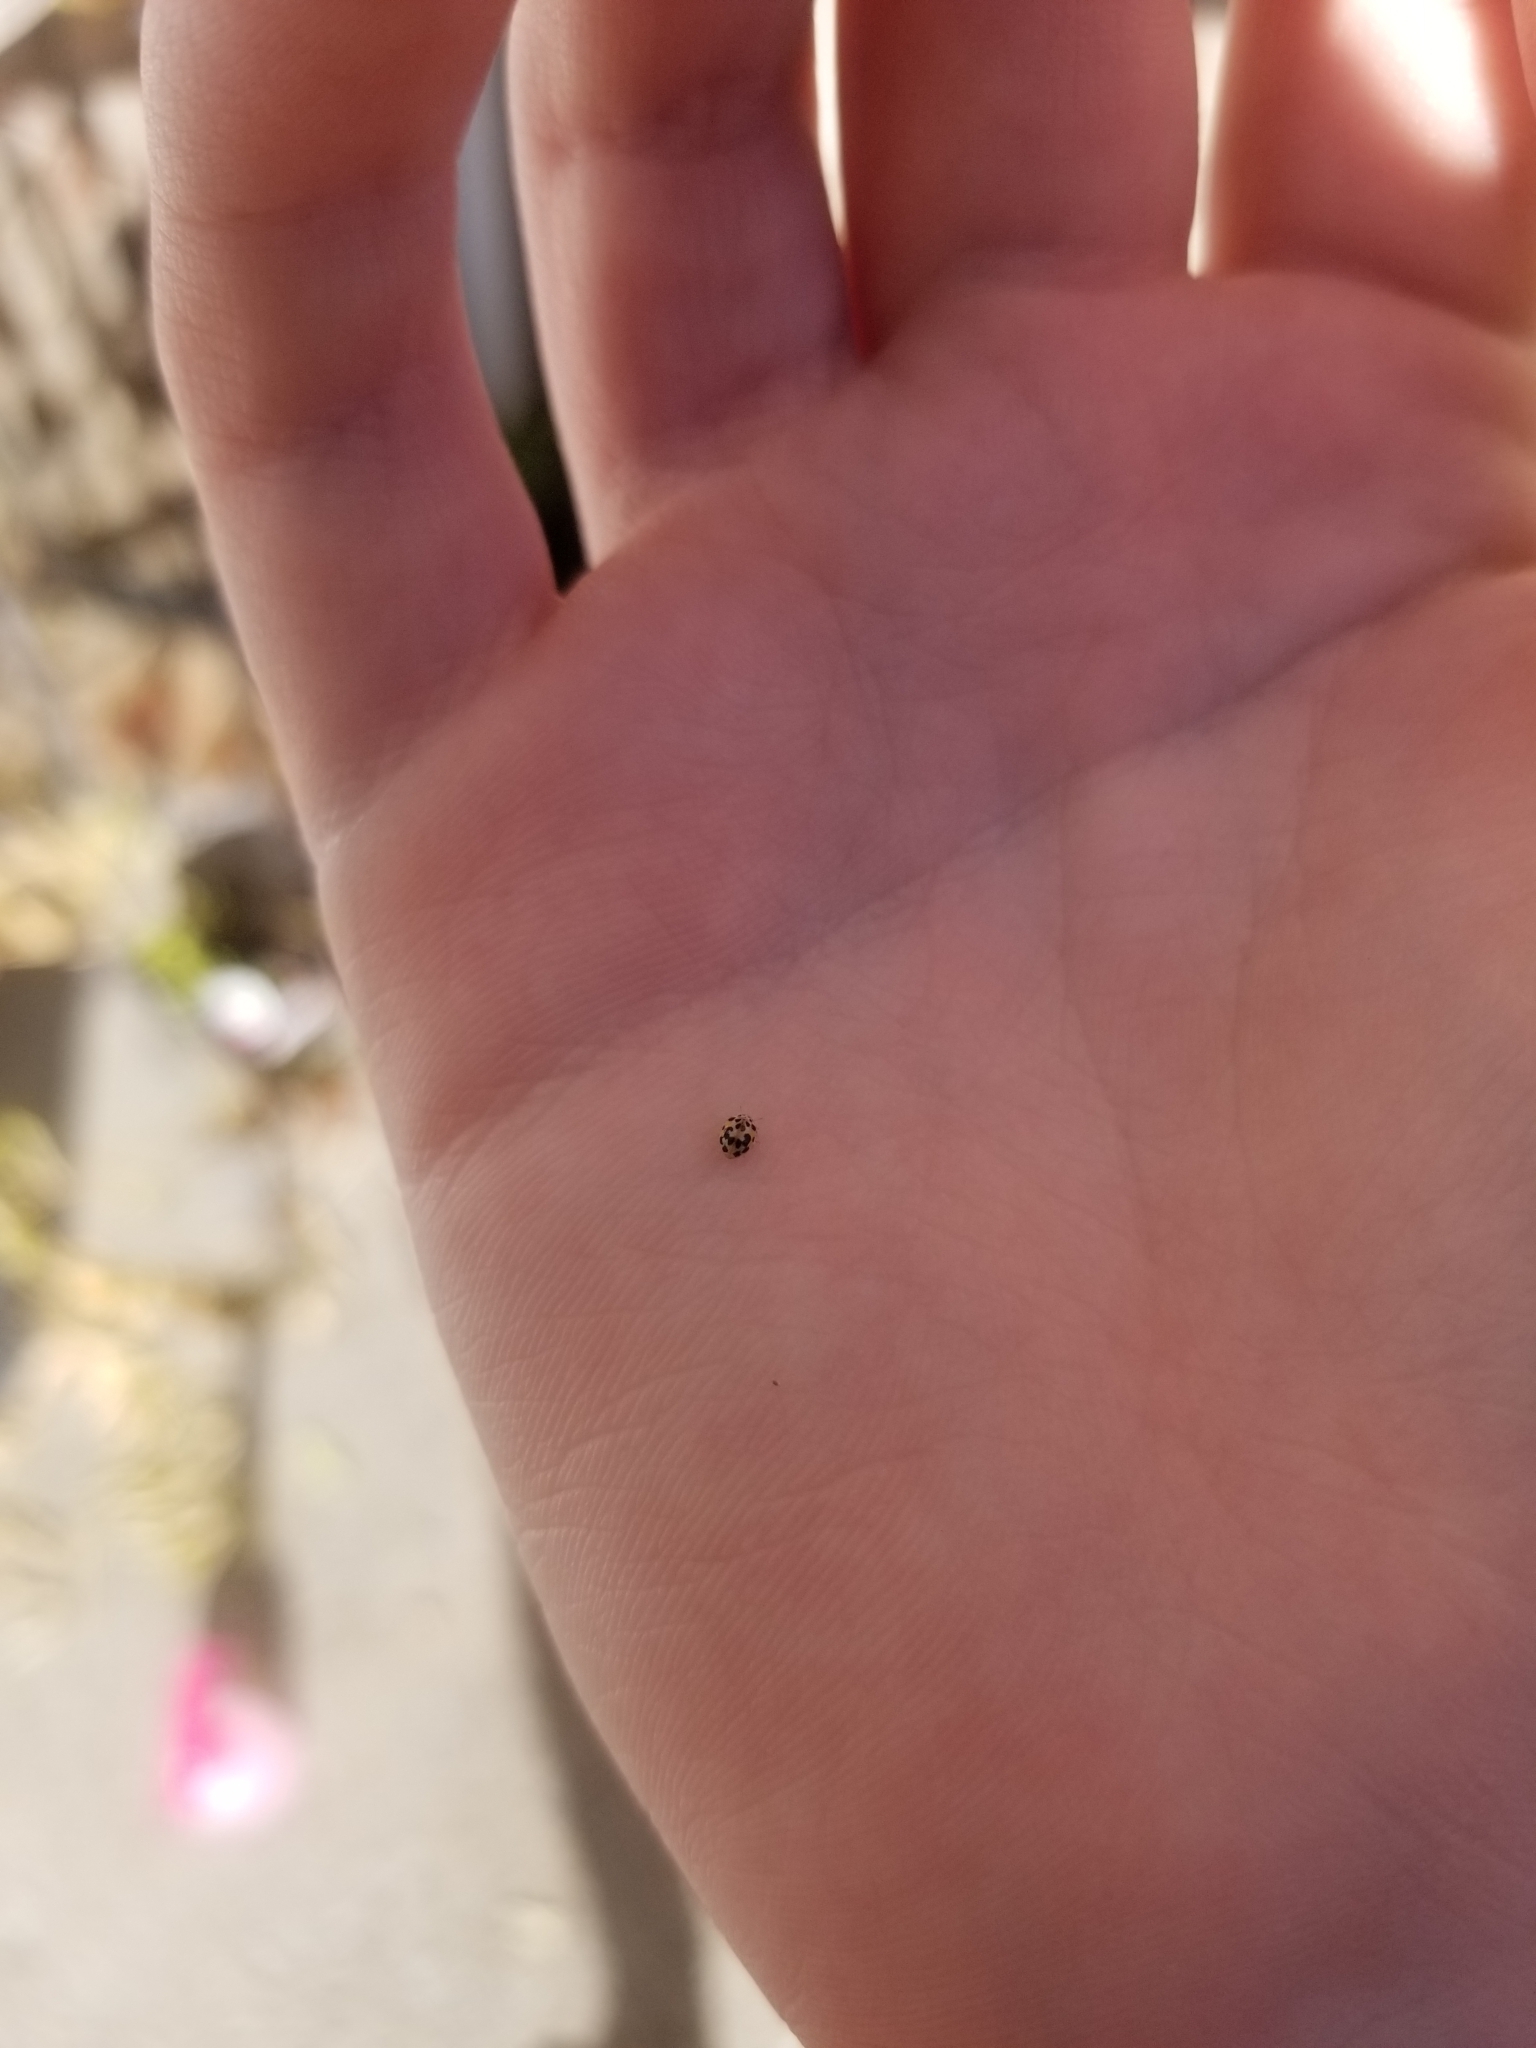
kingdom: Animalia
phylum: Arthropoda
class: Insecta
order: Coleoptera
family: Coccinellidae
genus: Psyllobora
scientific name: Psyllobora vigintimaculata
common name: Ladybird beetle
